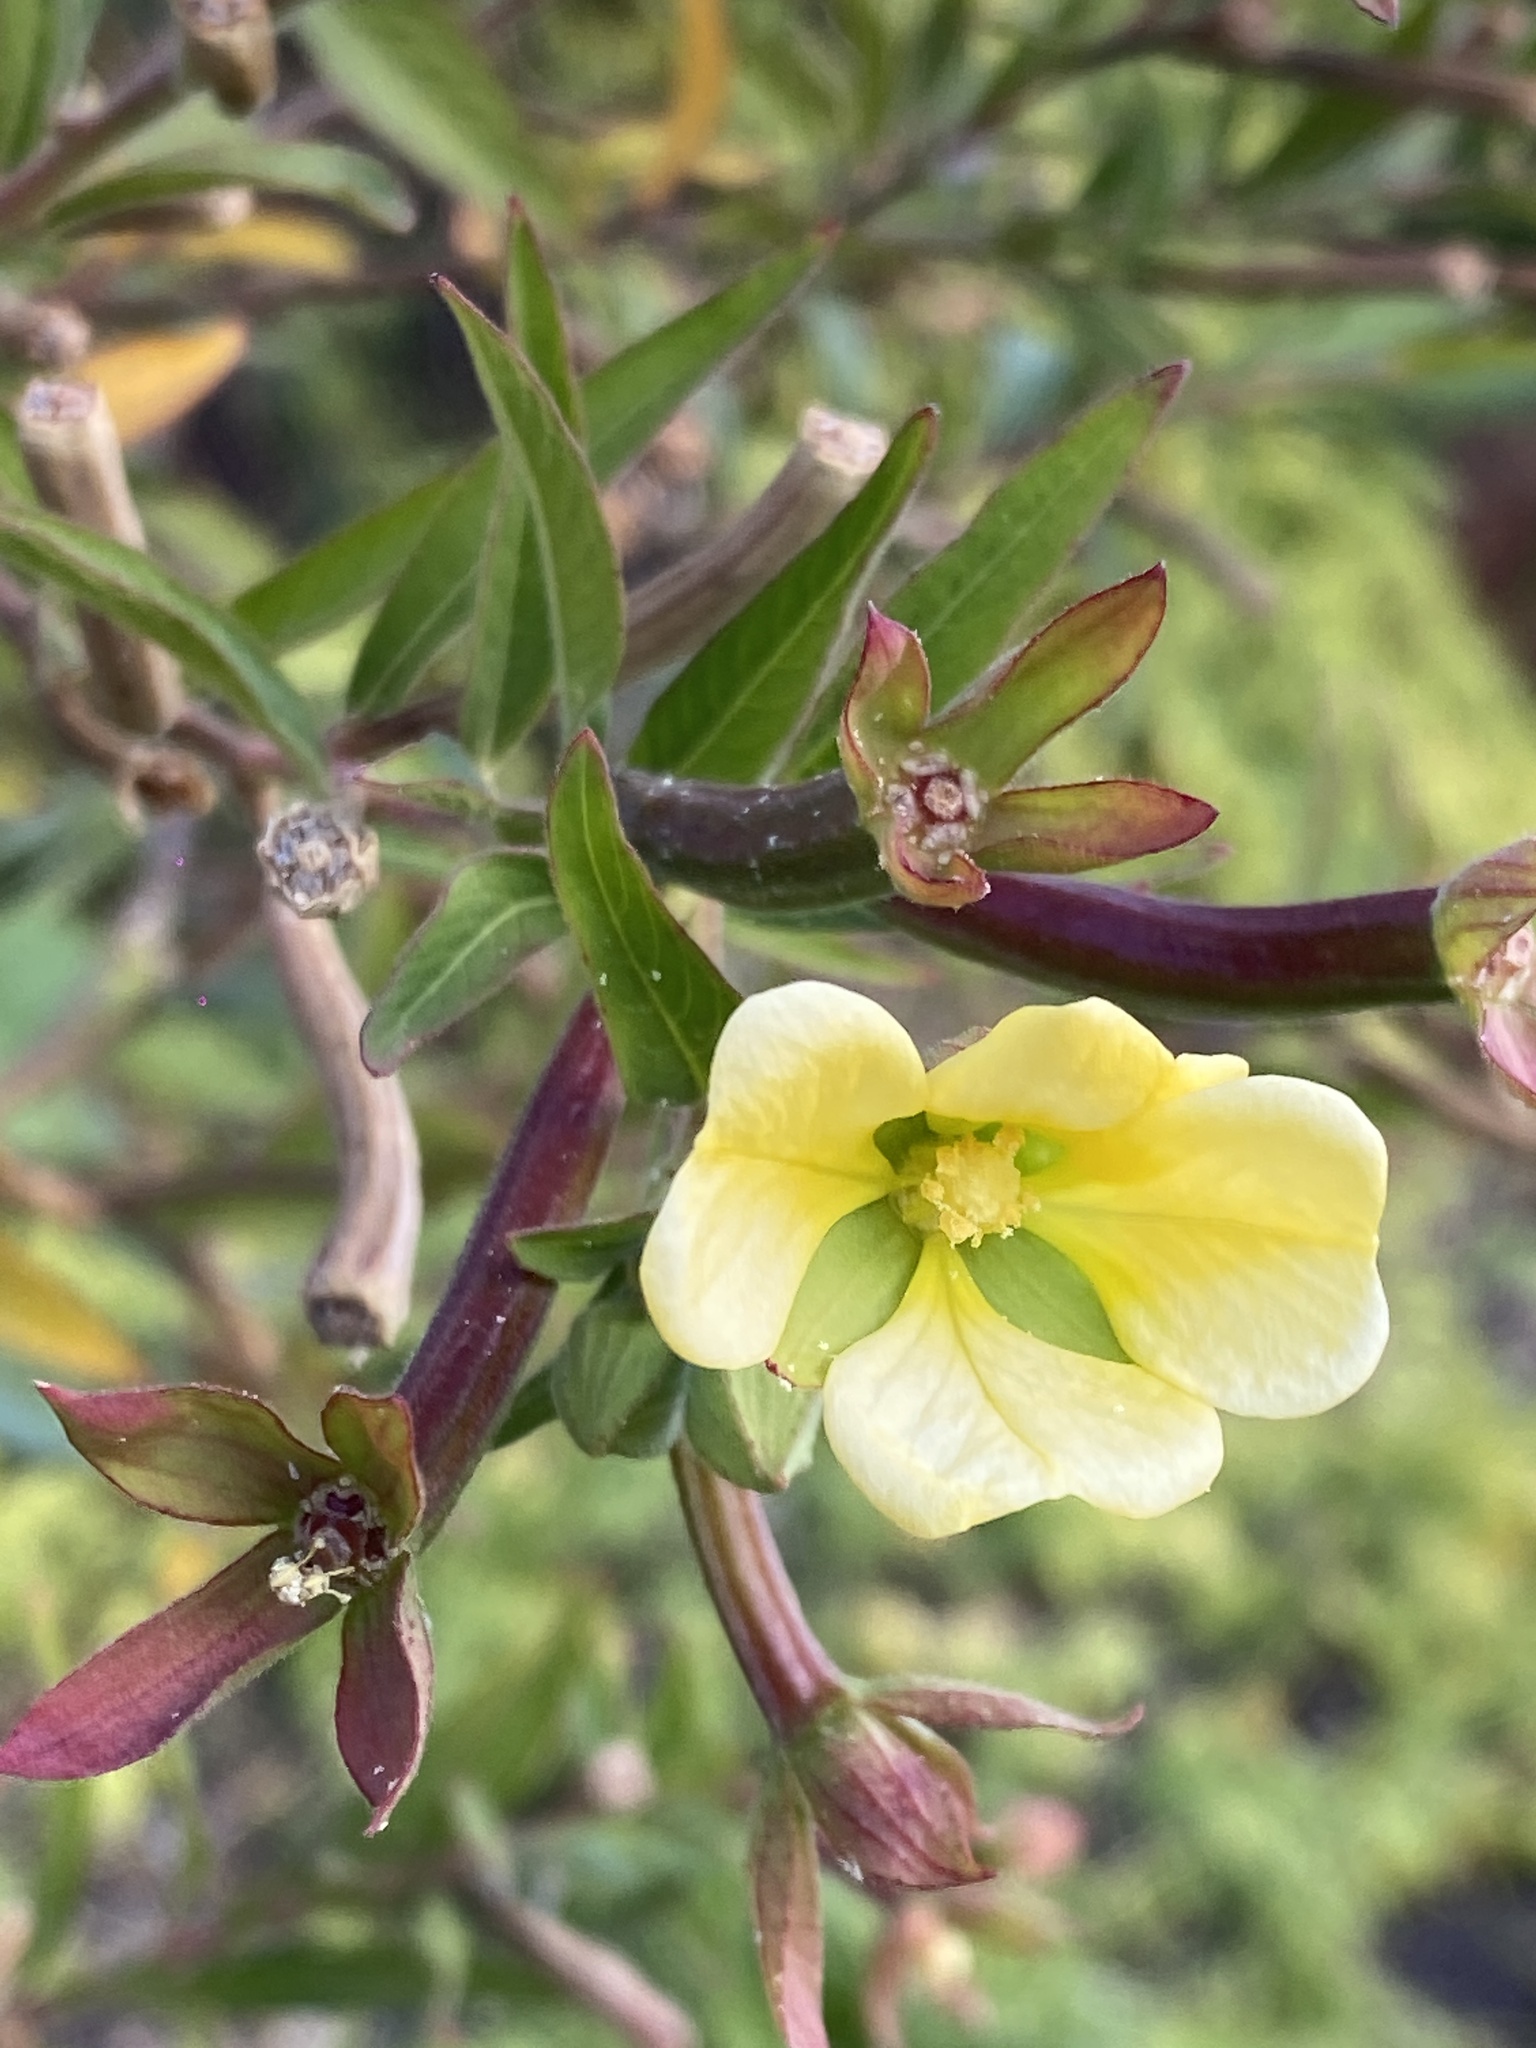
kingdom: Plantae
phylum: Tracheophyta
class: Magnoliopsida
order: Myrtales
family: Onagraceae
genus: Ludwigia
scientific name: Ludwigia octovalvis
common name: Water-primrose
